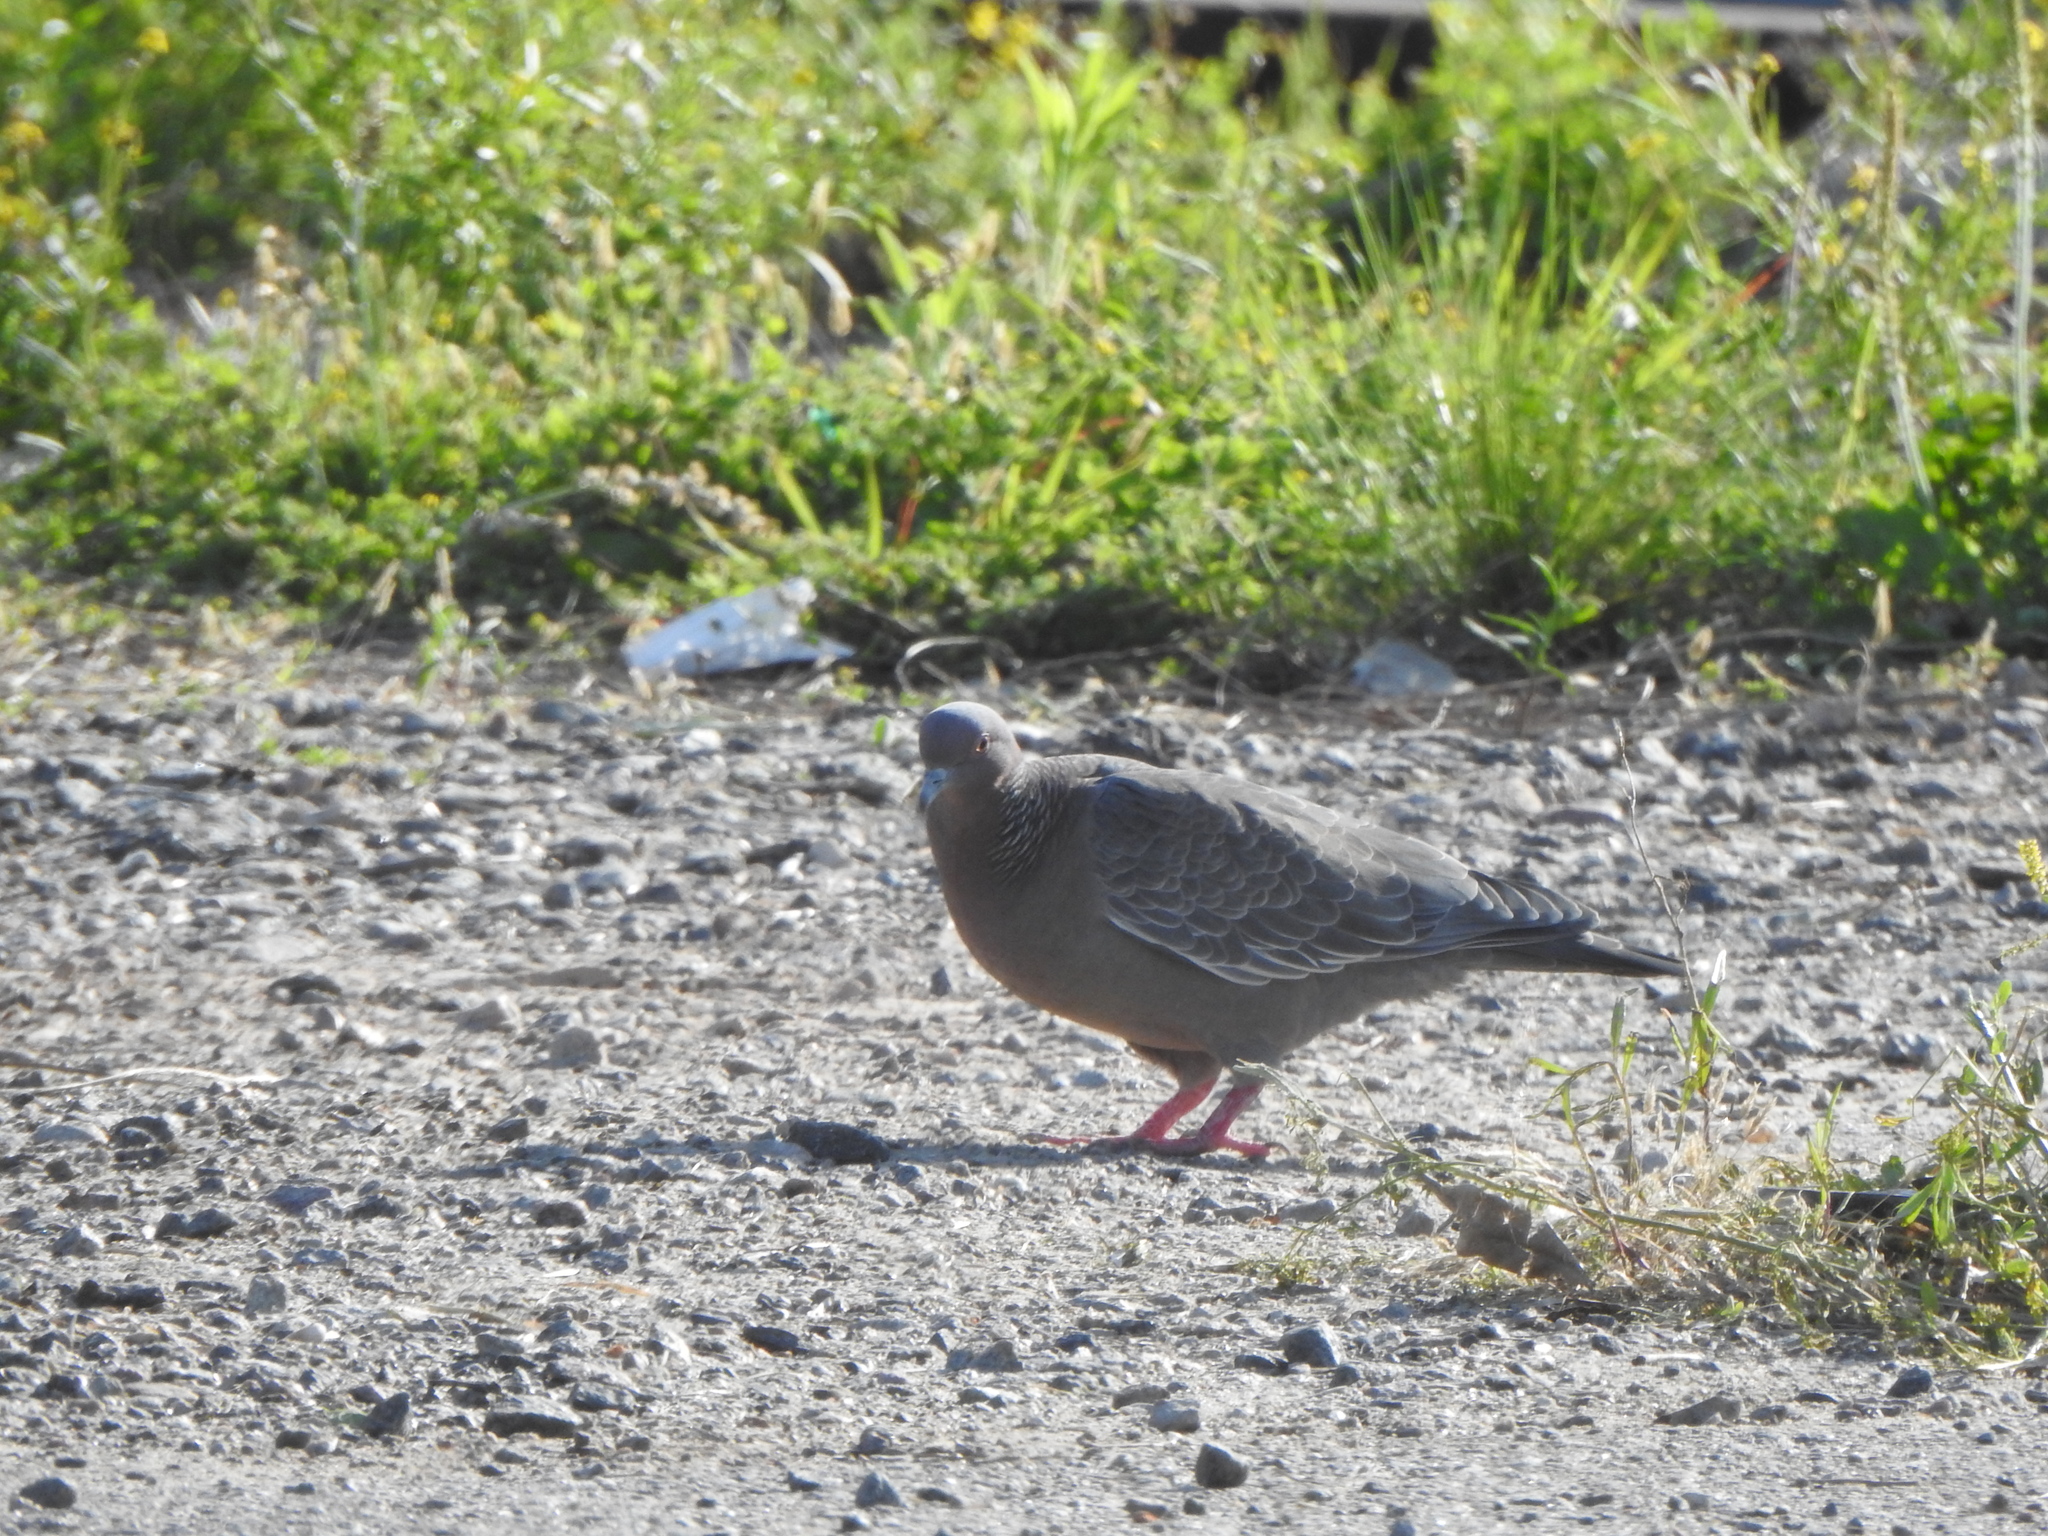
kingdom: Animalia
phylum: Chordata
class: Aves
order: Columbiformes
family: Columbidae
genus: Patagioenas
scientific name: Patagioenas picazuro
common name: Picazuro pigeon
